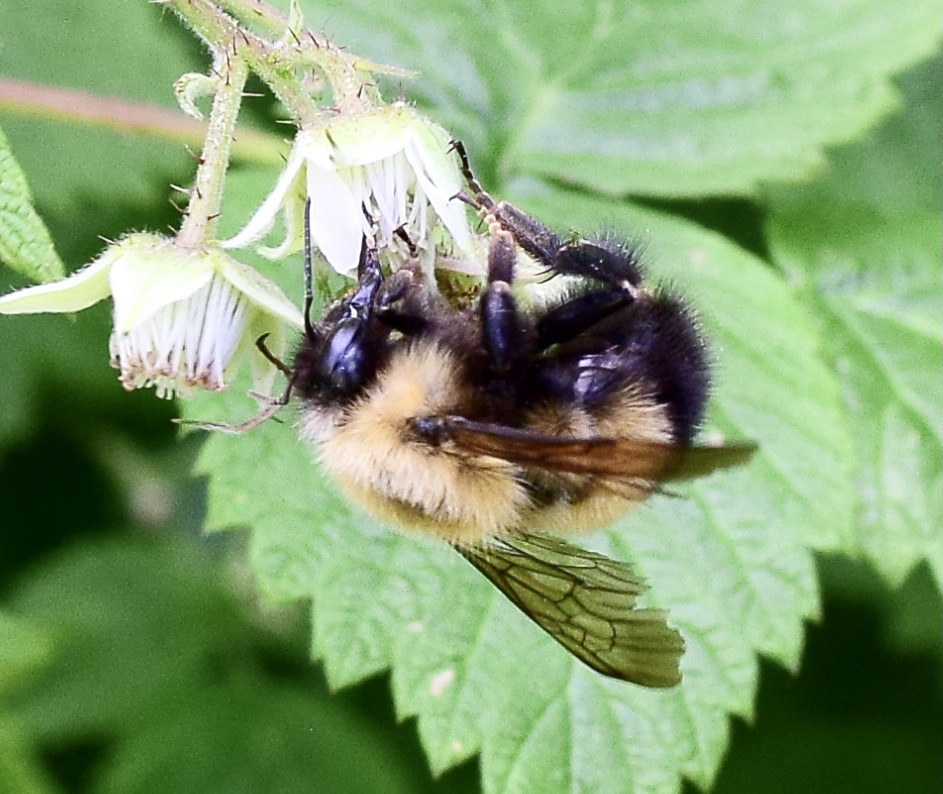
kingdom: Animalia
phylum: Arthropoda
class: Insecta
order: Hymenoptera
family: Apidae
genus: Bombus
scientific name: Bombus perplexus
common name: Confusing bumble bee
